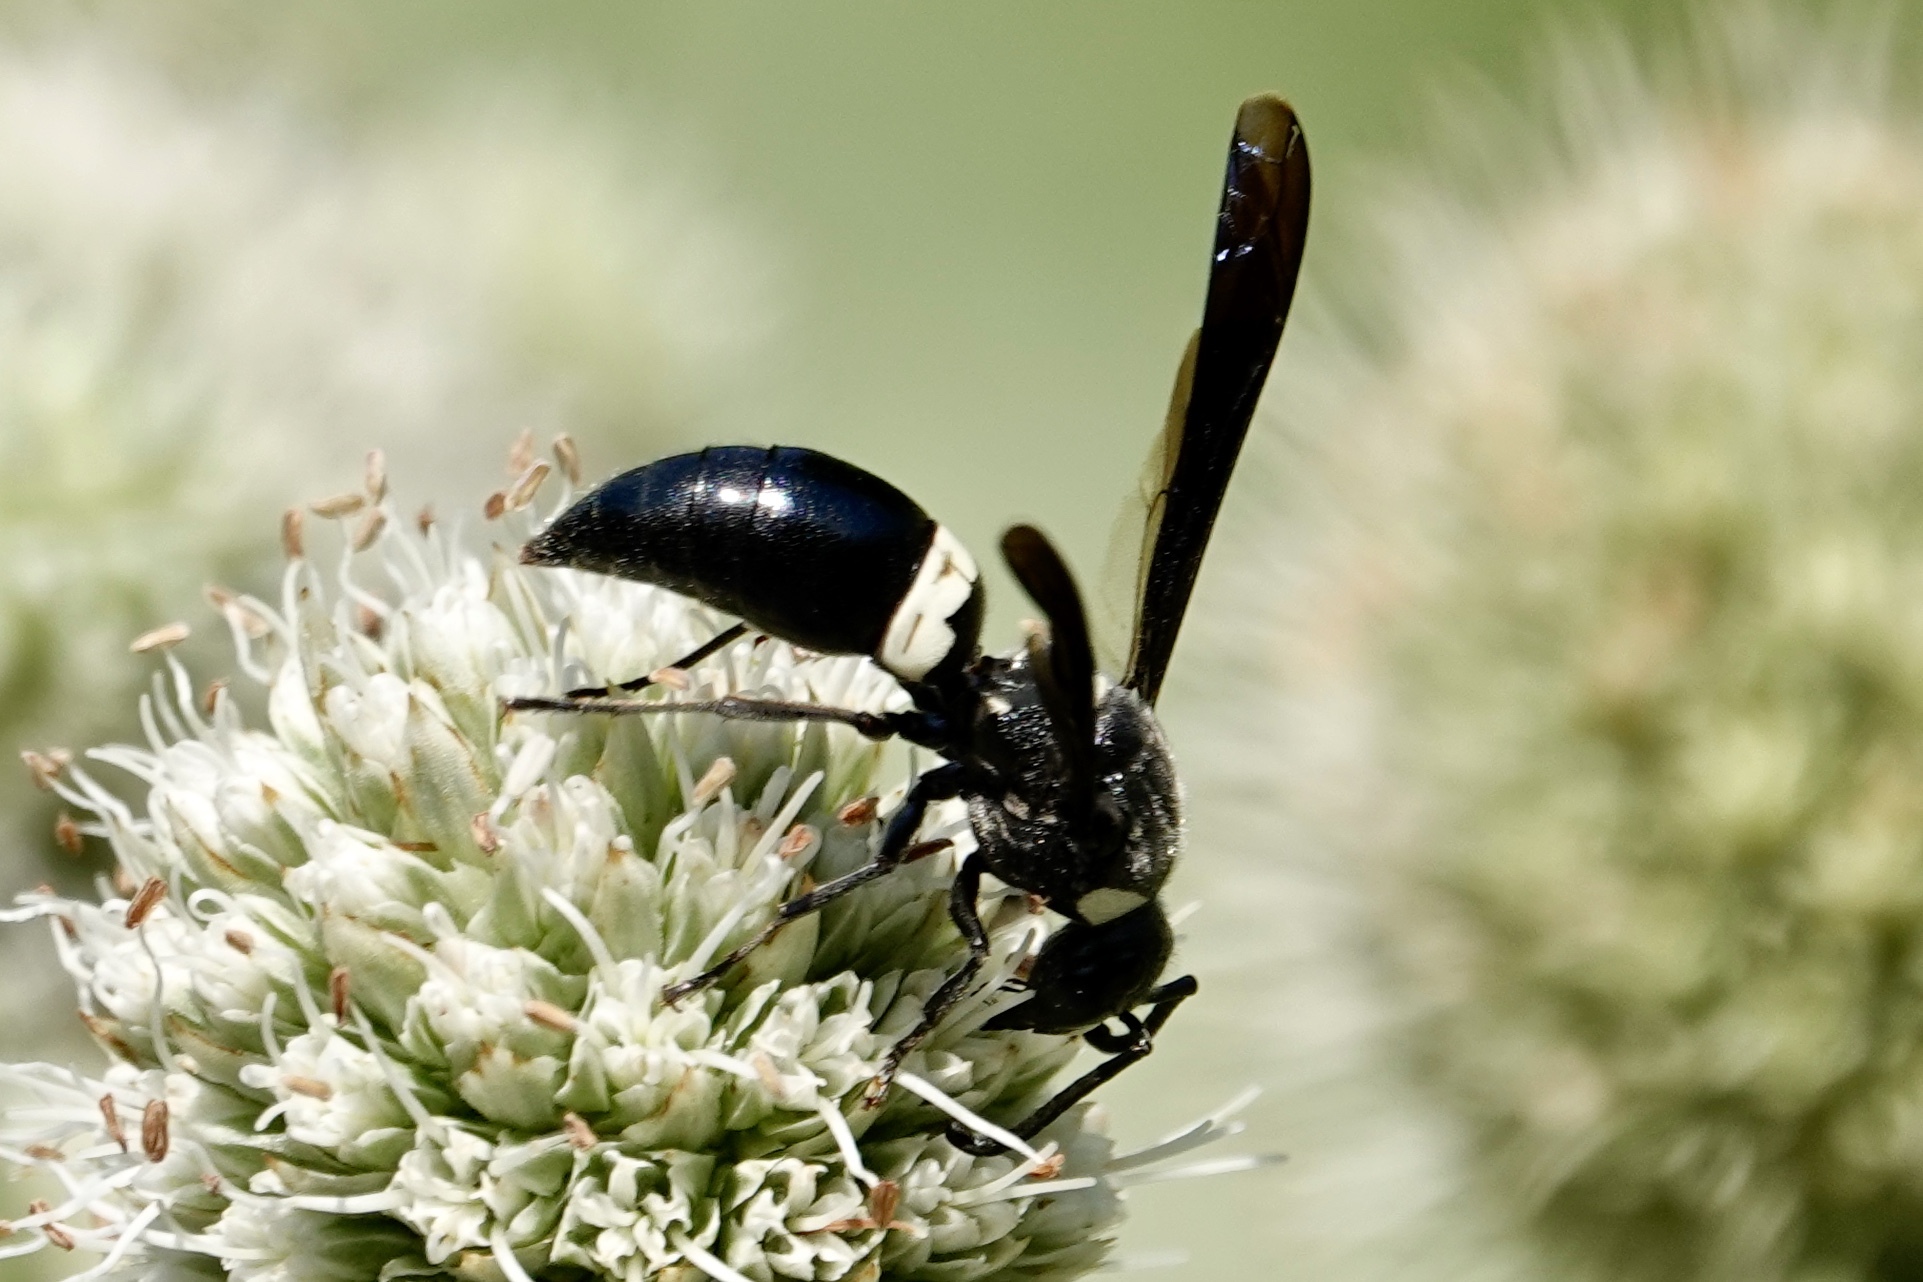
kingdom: Animalia
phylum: Arthropoda
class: Insecta
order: Hymenoptera
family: Eumenidae
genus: Monobia
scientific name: Monobia quadridens
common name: Four-toothed mason wasp
